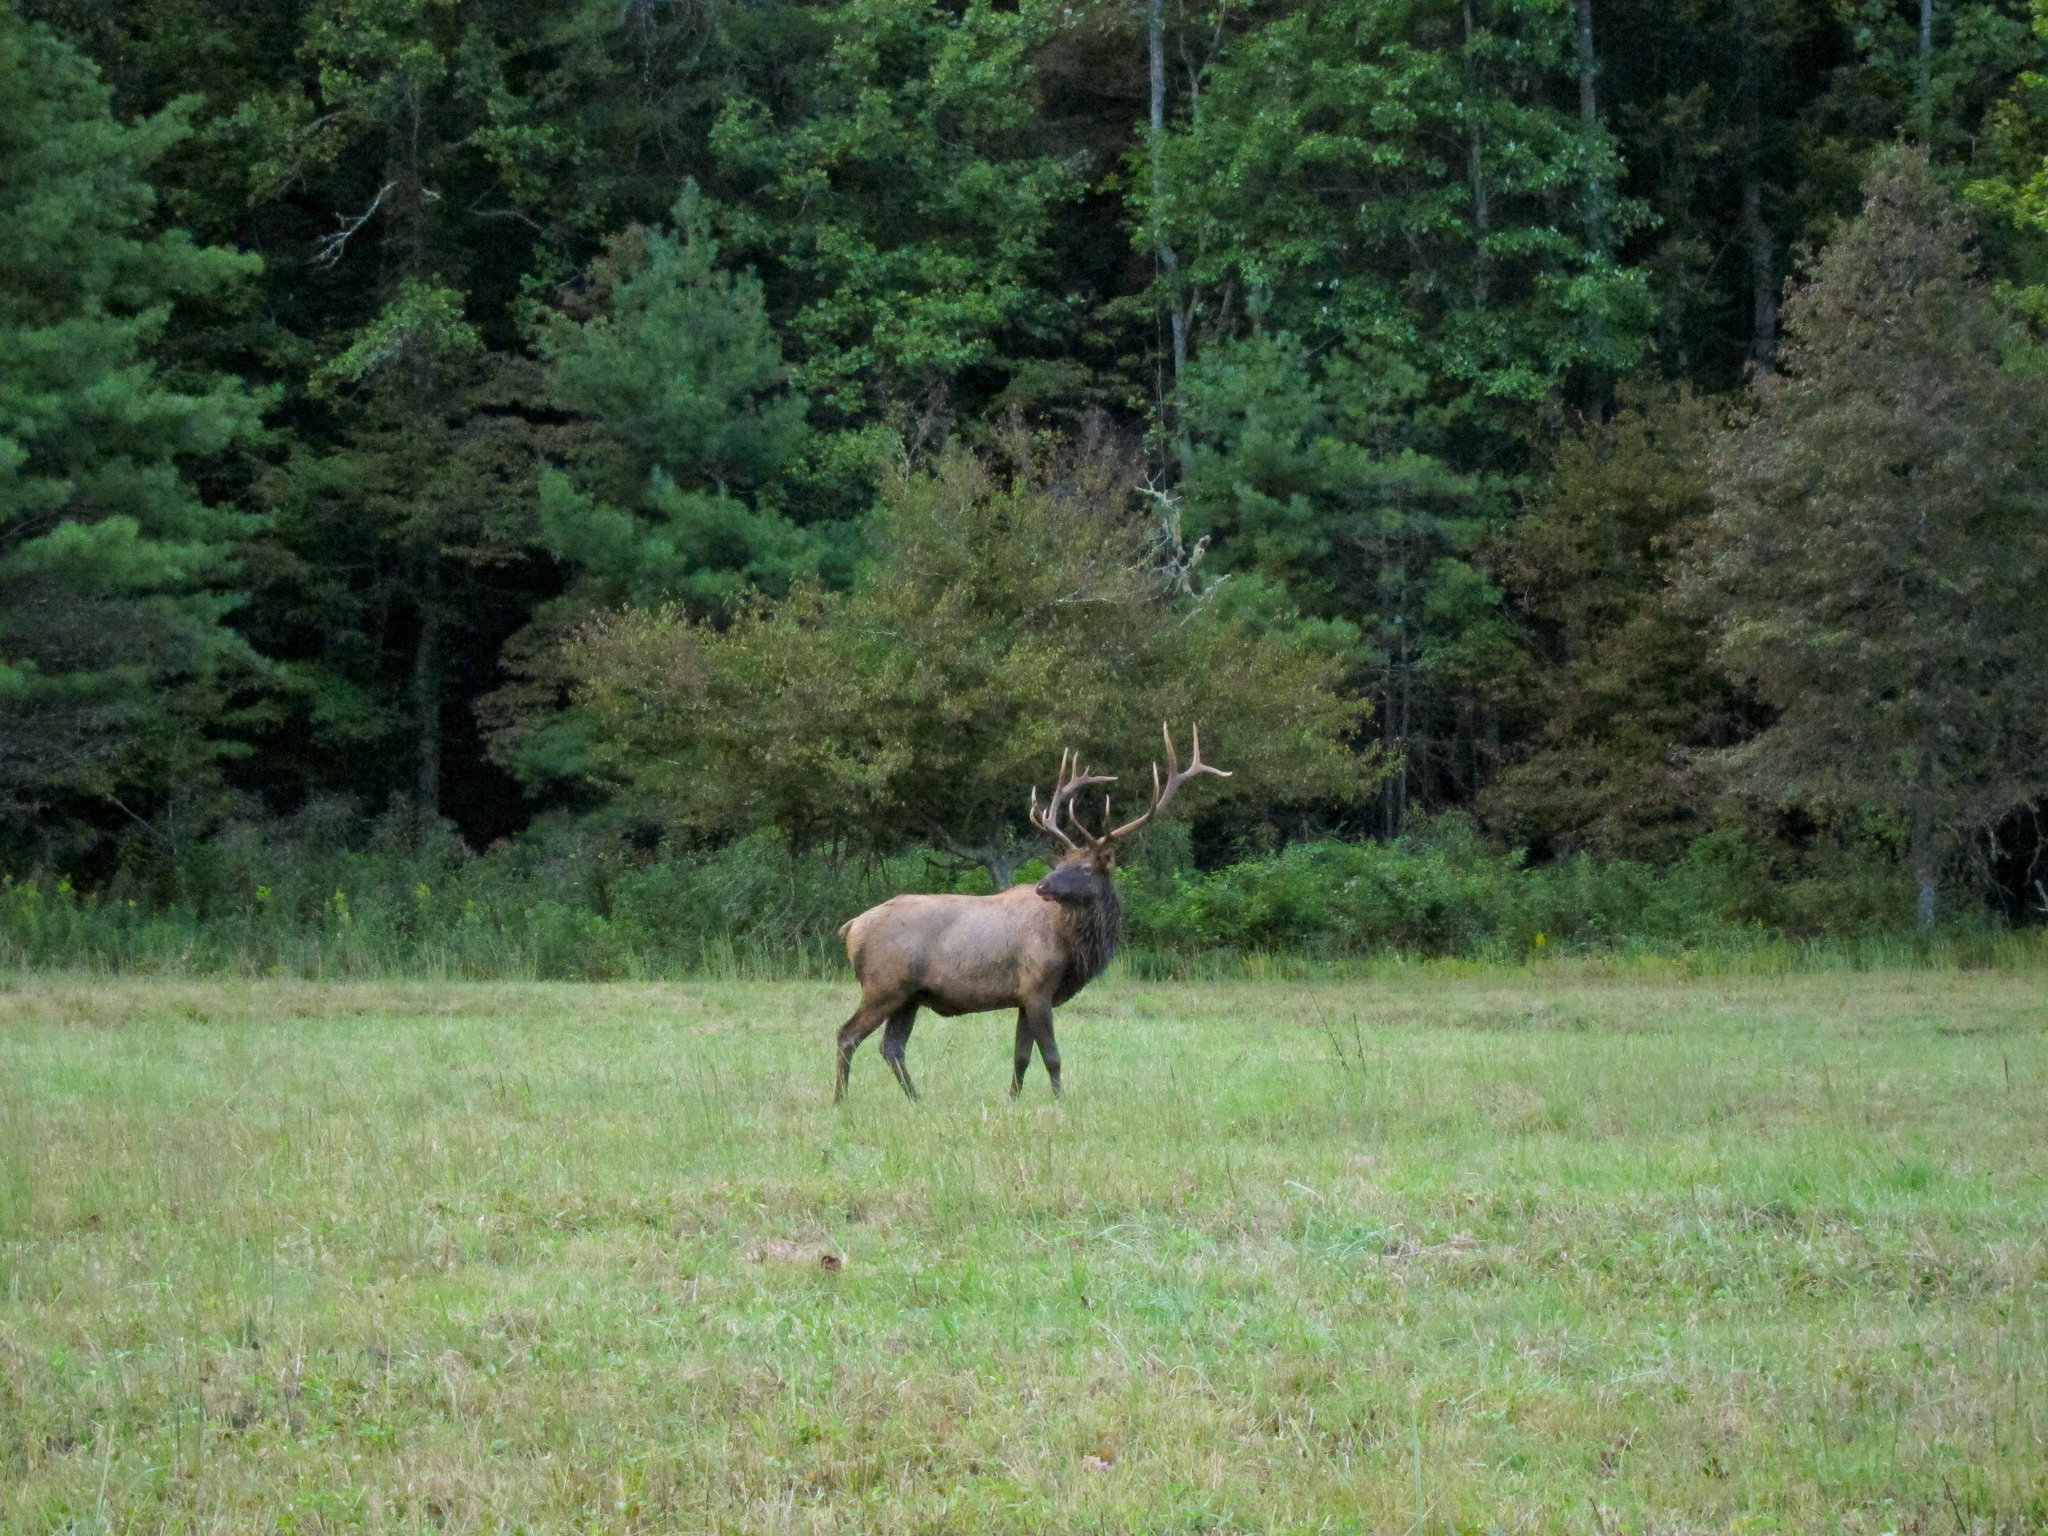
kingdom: Animalia
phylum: Chordata
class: Mammalia
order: Artiodactyla
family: Cervidae
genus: Cervus
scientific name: Cervus elaphus
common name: Red deer
